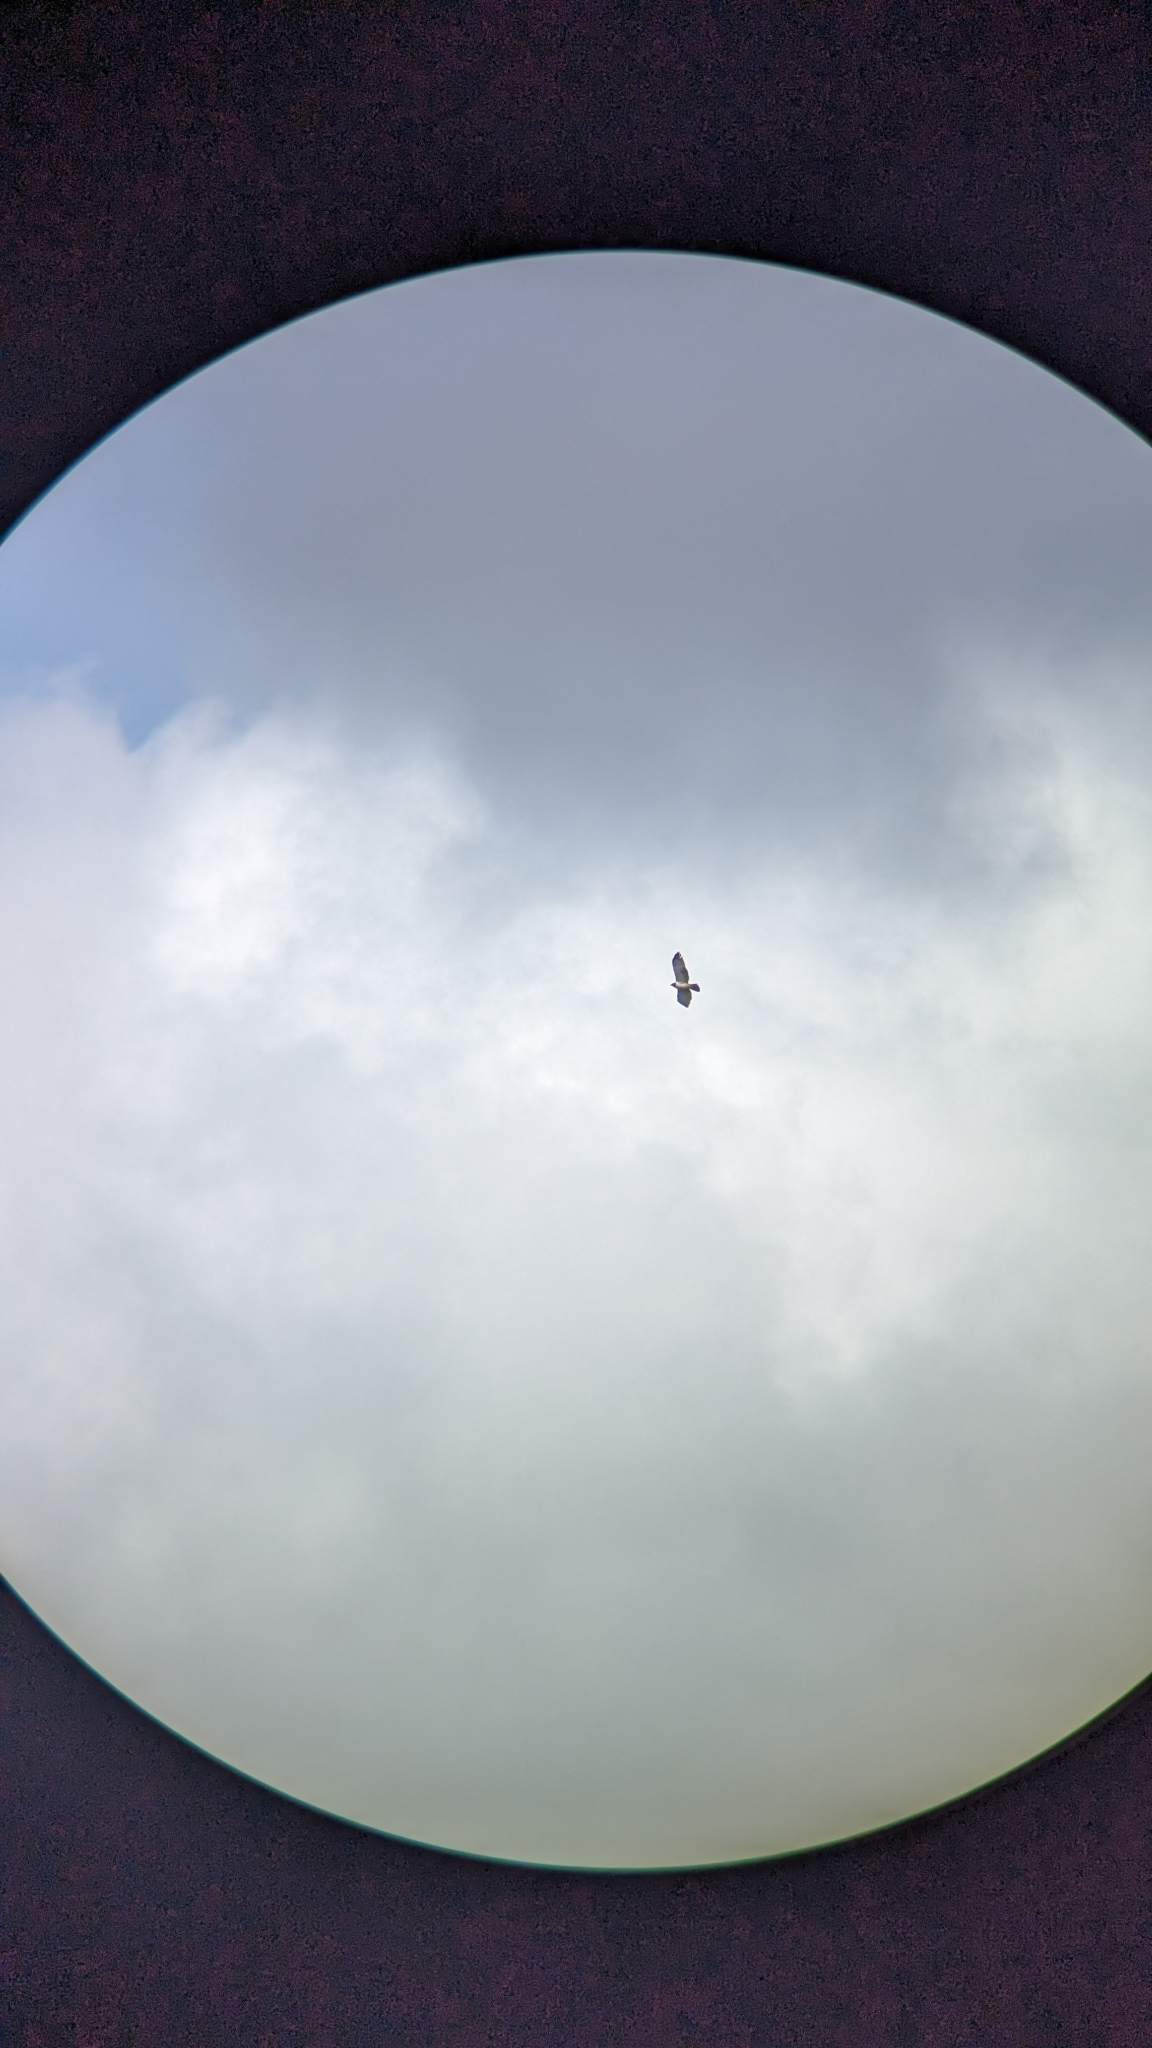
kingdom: Animalia
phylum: Chordata
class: Aves
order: Accipitriformes
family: Accipitridae
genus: Buteo
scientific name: Buteo brachyurus
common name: Short-tailed hawk
